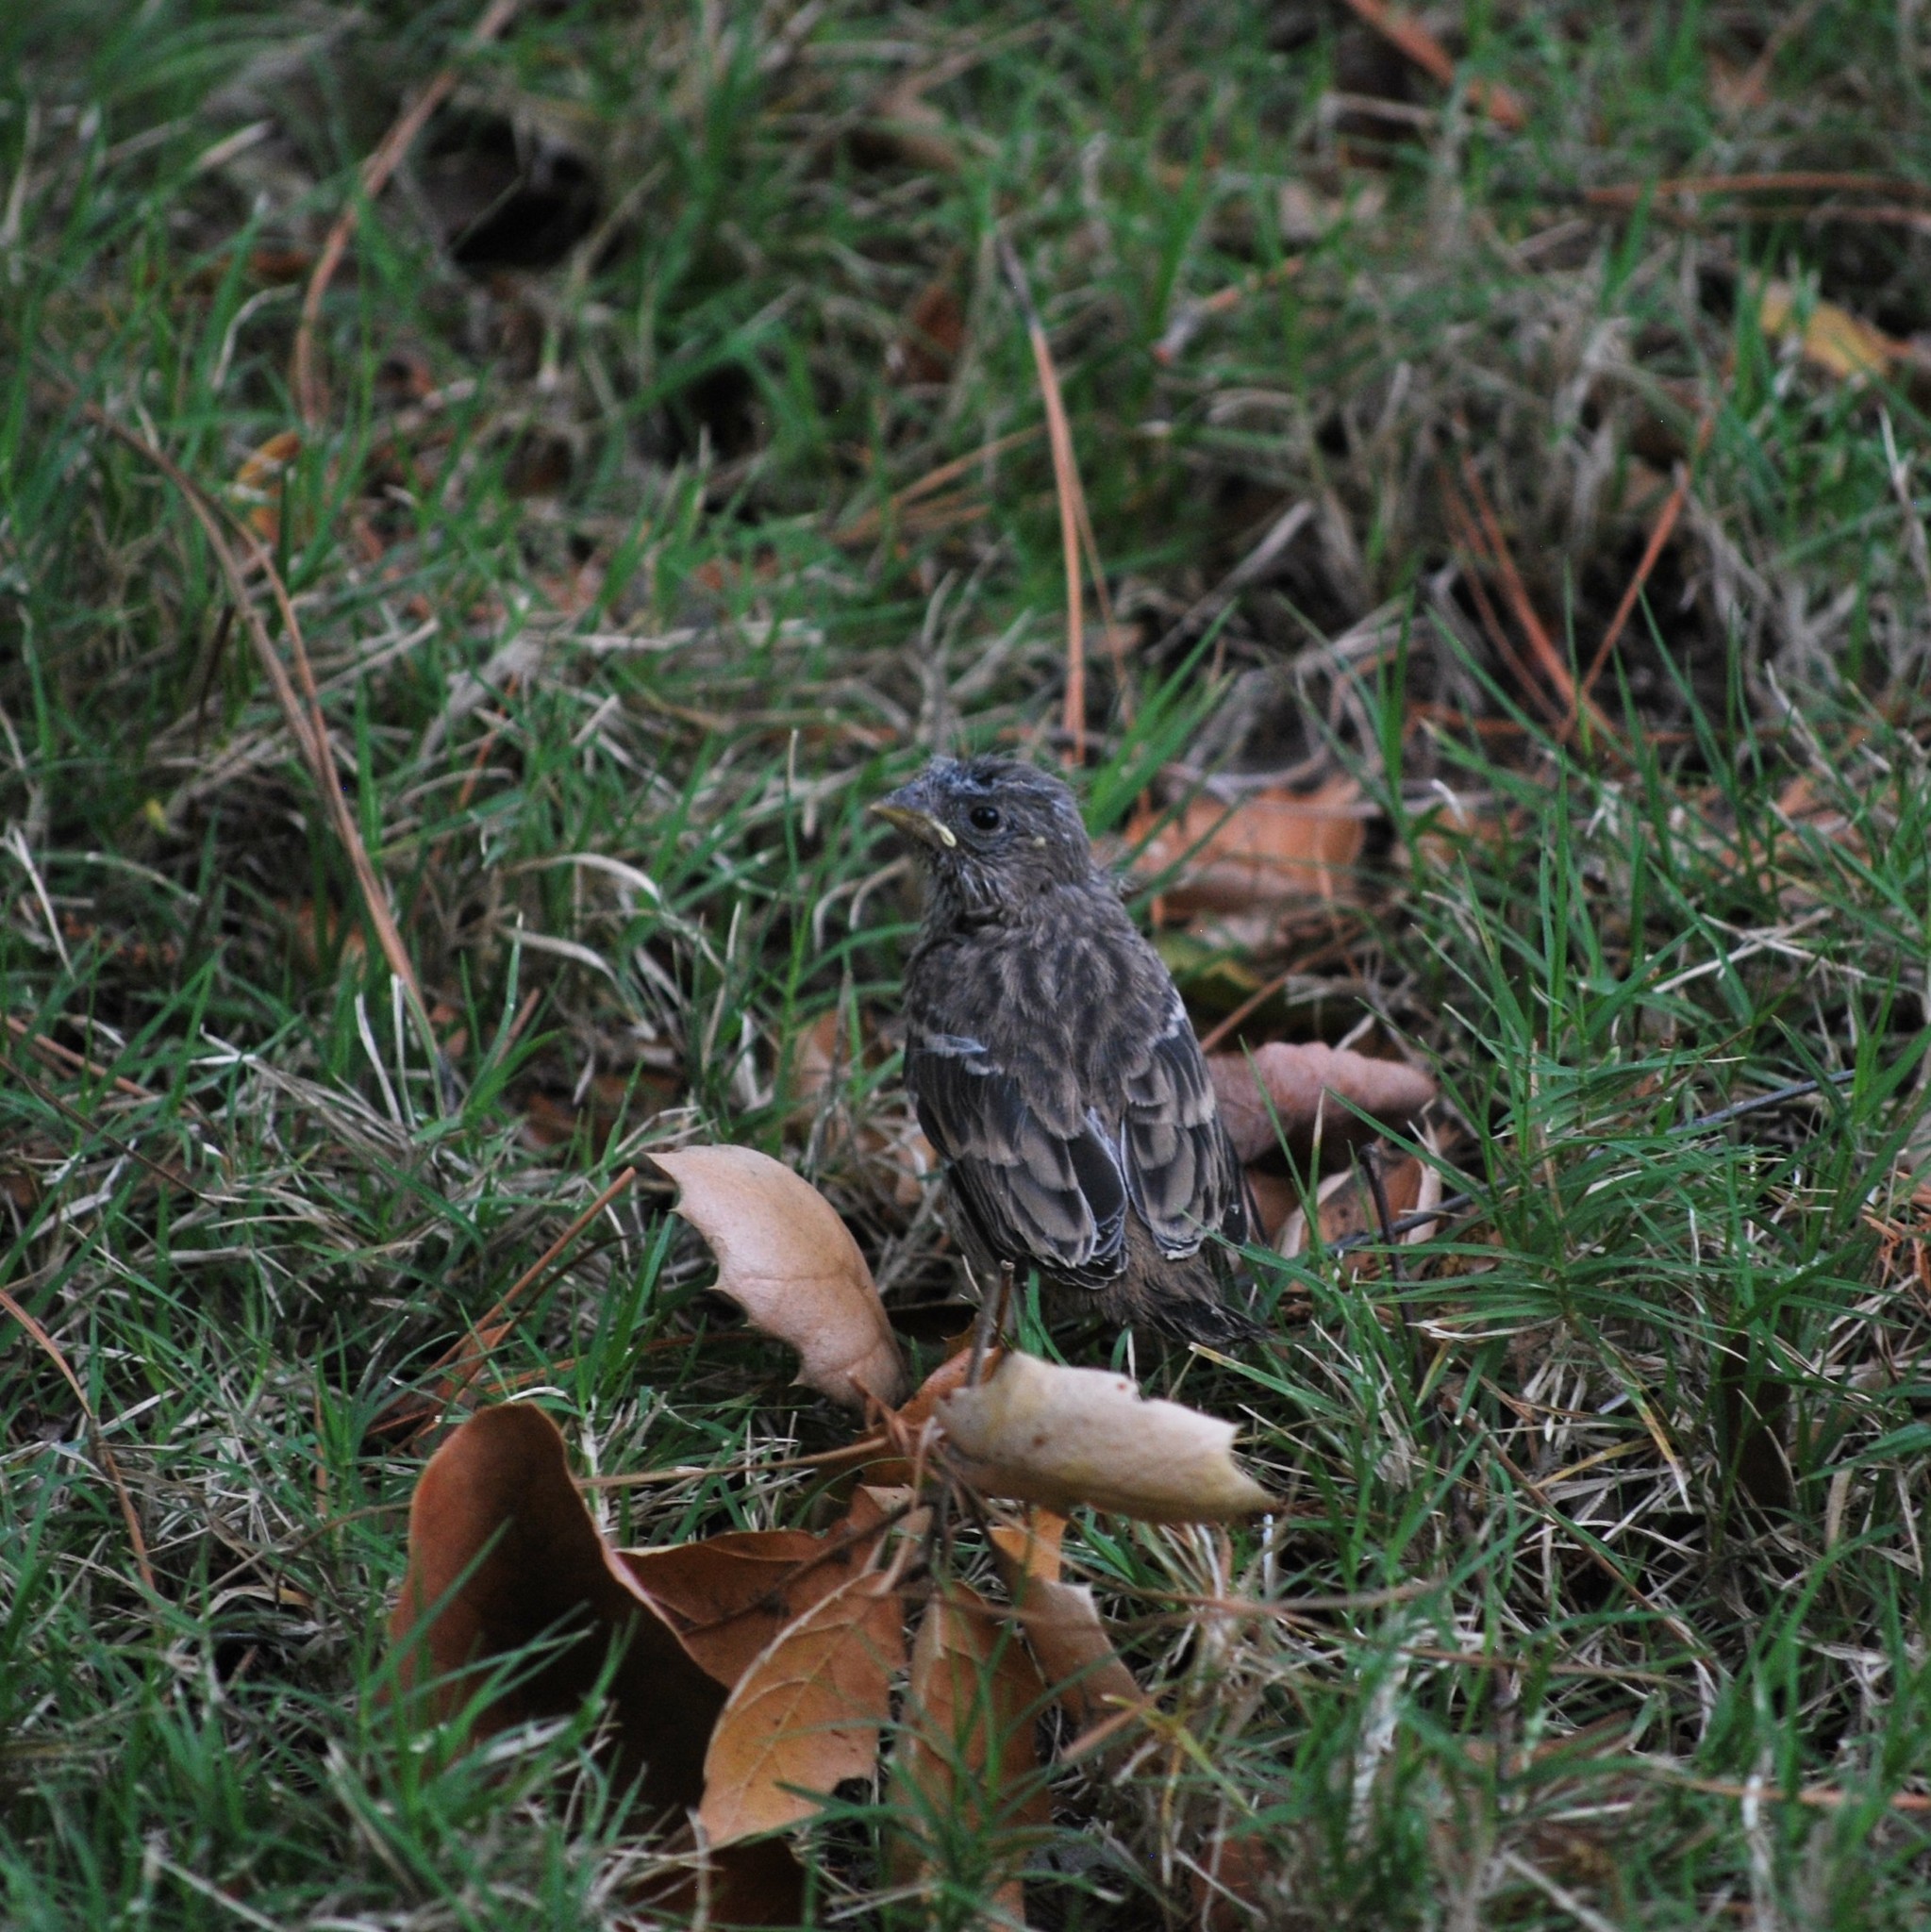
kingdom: Animalia
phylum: Chordata
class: Aves
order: Passeriformes
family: Fringillidae
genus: Haemorhous
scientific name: Haemorhous mexicanus
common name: House finch
